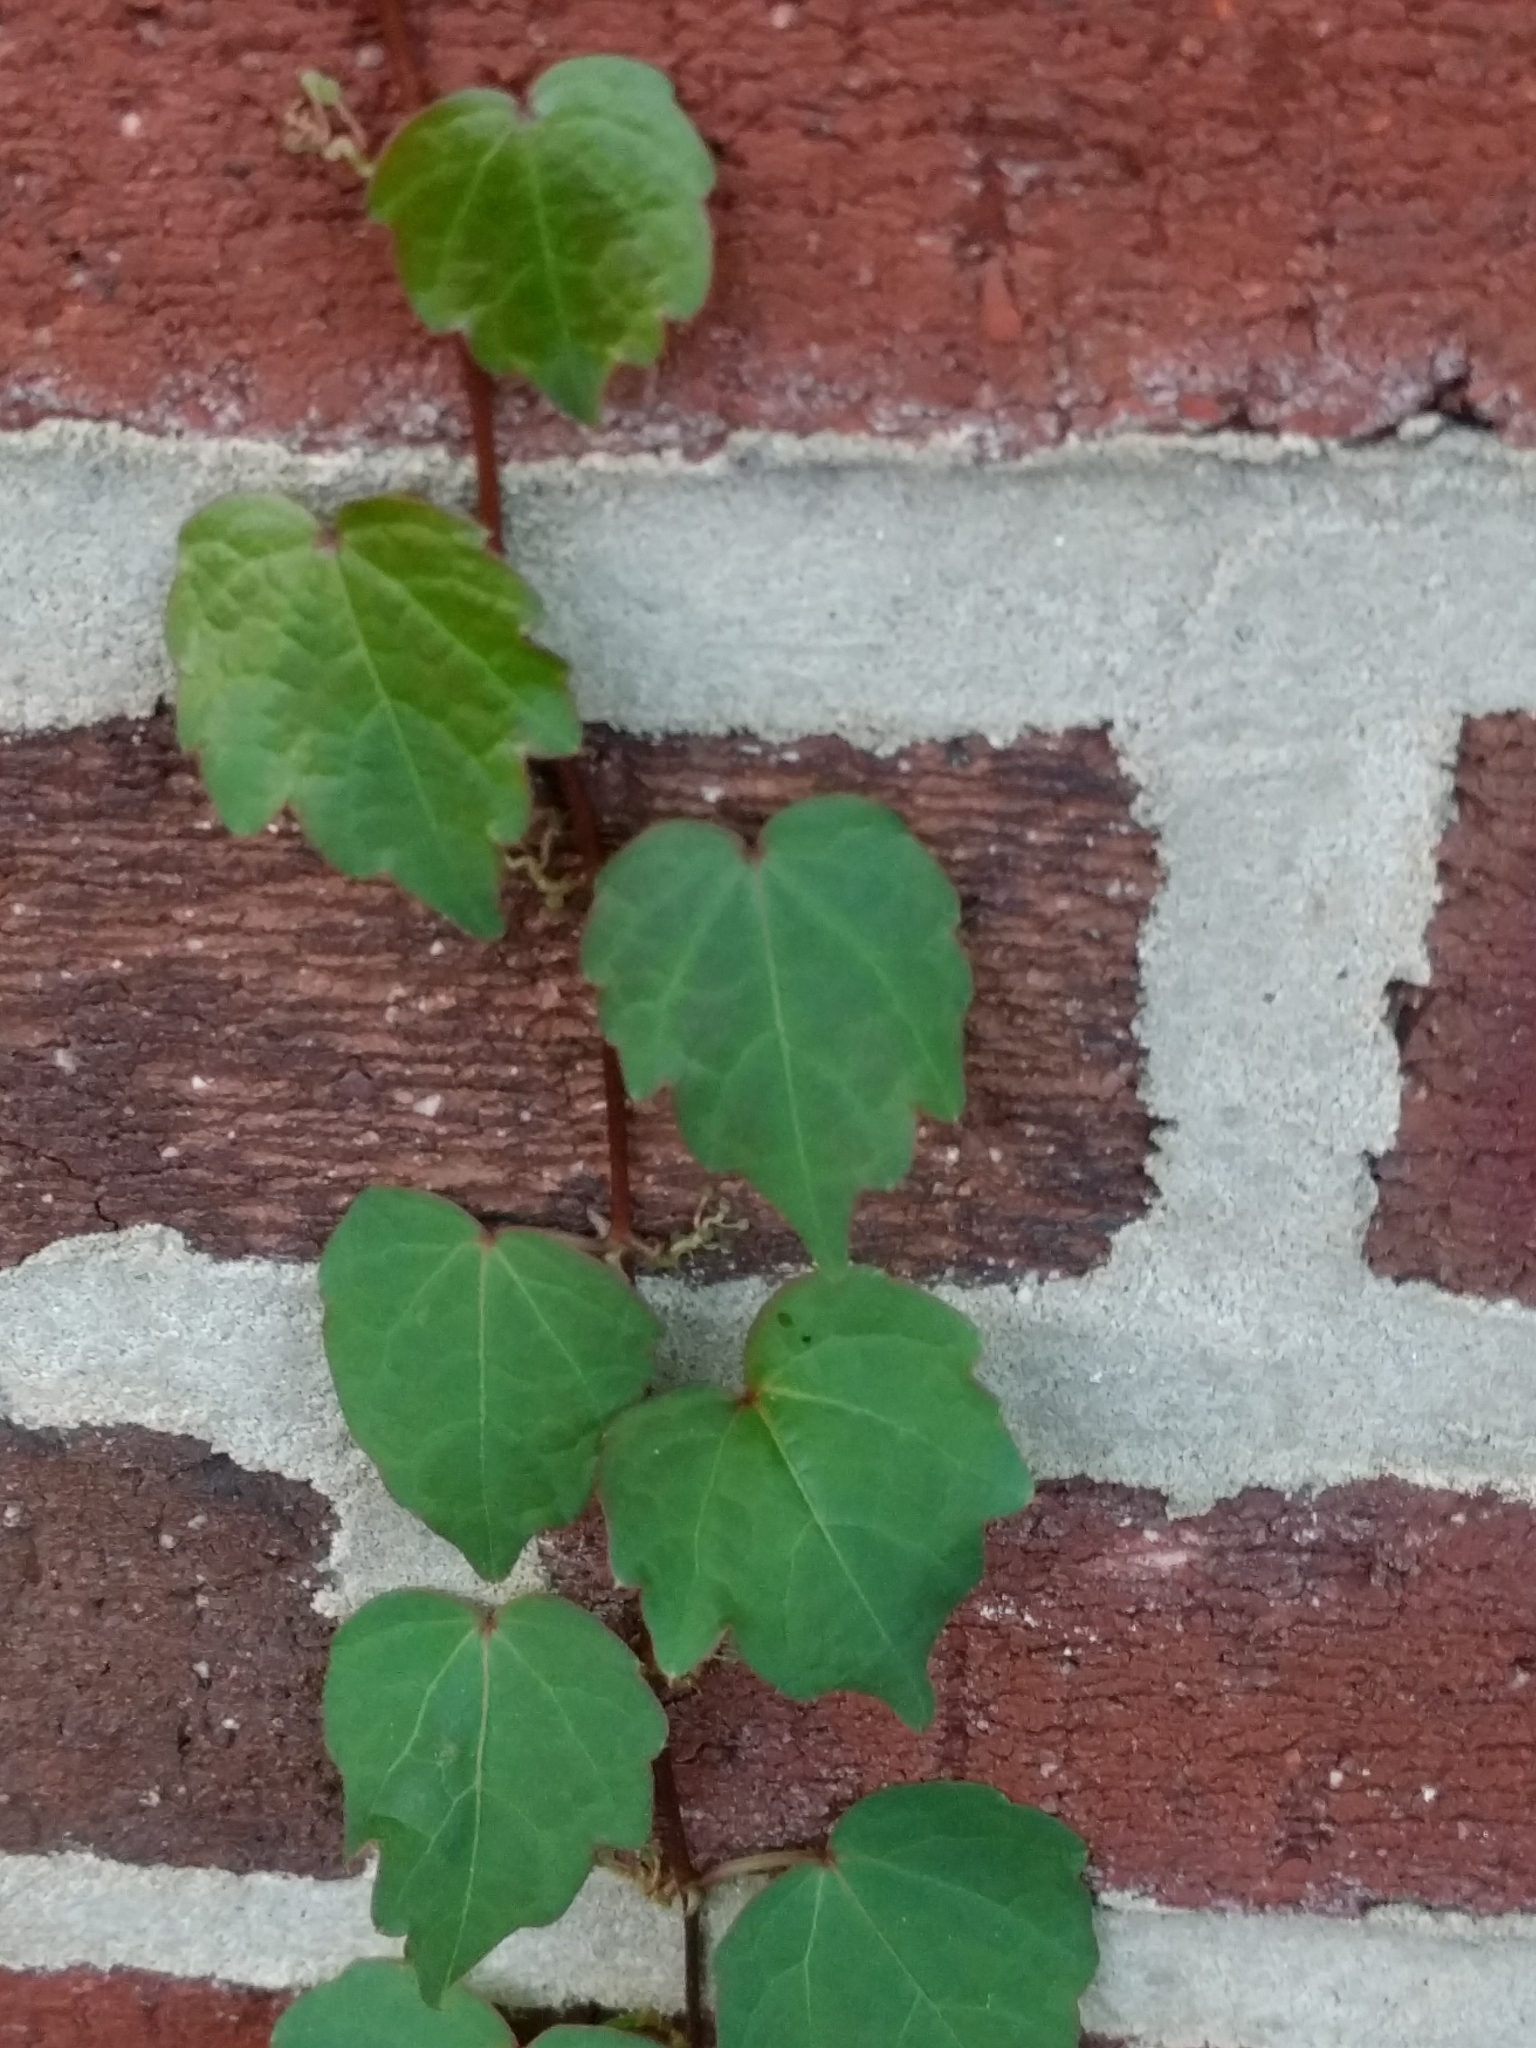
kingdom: Plantae
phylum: Tracheophyta
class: Magnoliopsida
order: Vitales
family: Vitaceae
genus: Parthenocissus
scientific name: Parthenocissus tricuspidata
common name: Boston ivy
